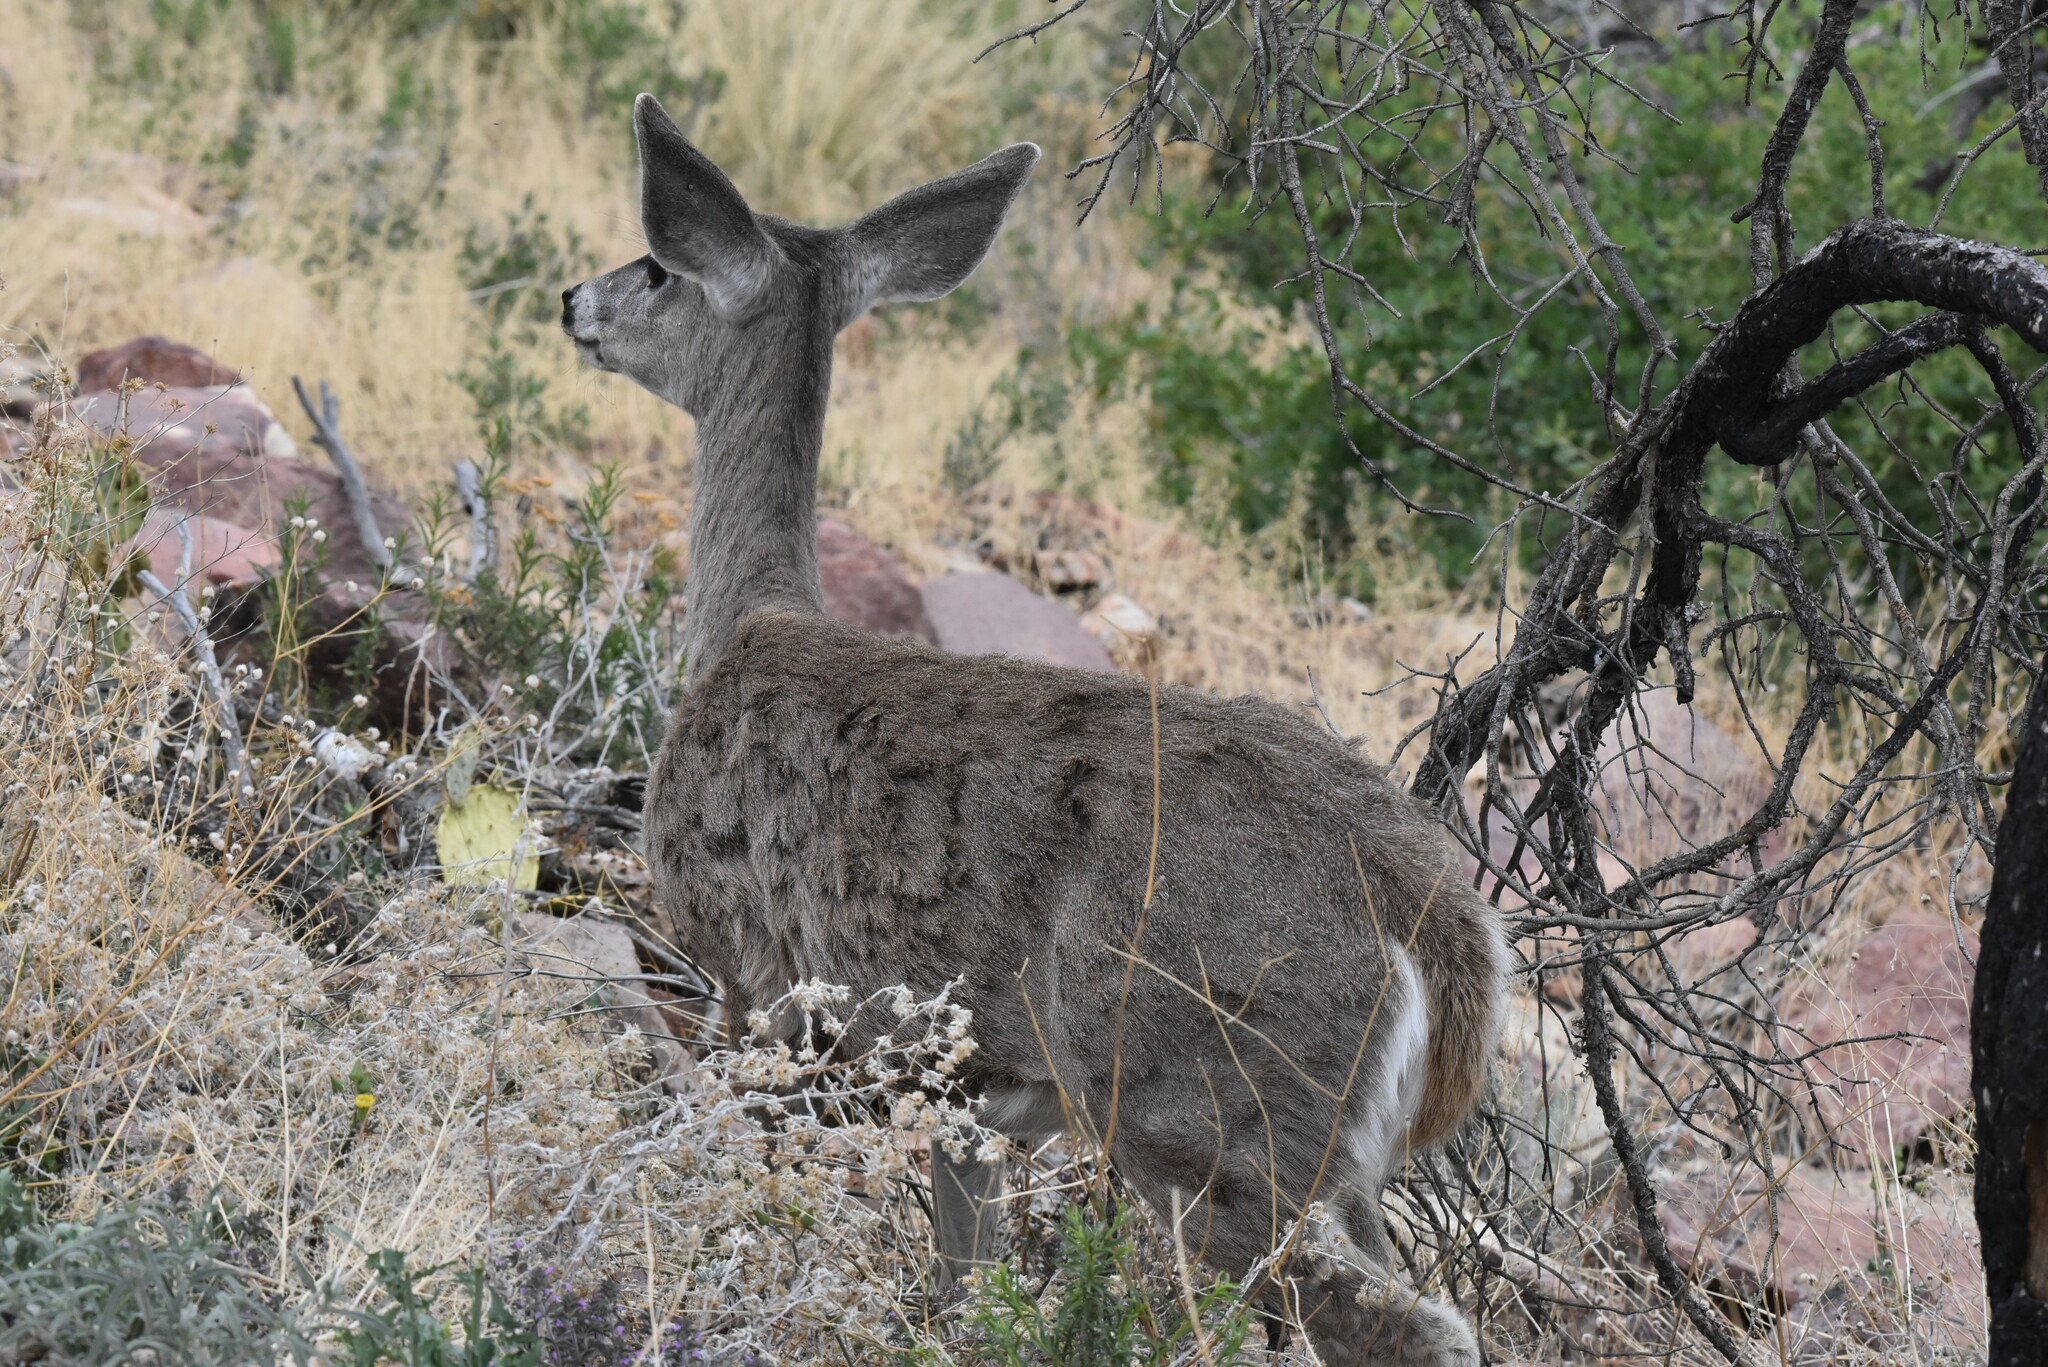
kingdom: Animalia
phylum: Chordata
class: Mammalia
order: Artiodactyla
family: Cervidae
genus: Odocoileus
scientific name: Odocoileus virginianus
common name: White-tailed deer
